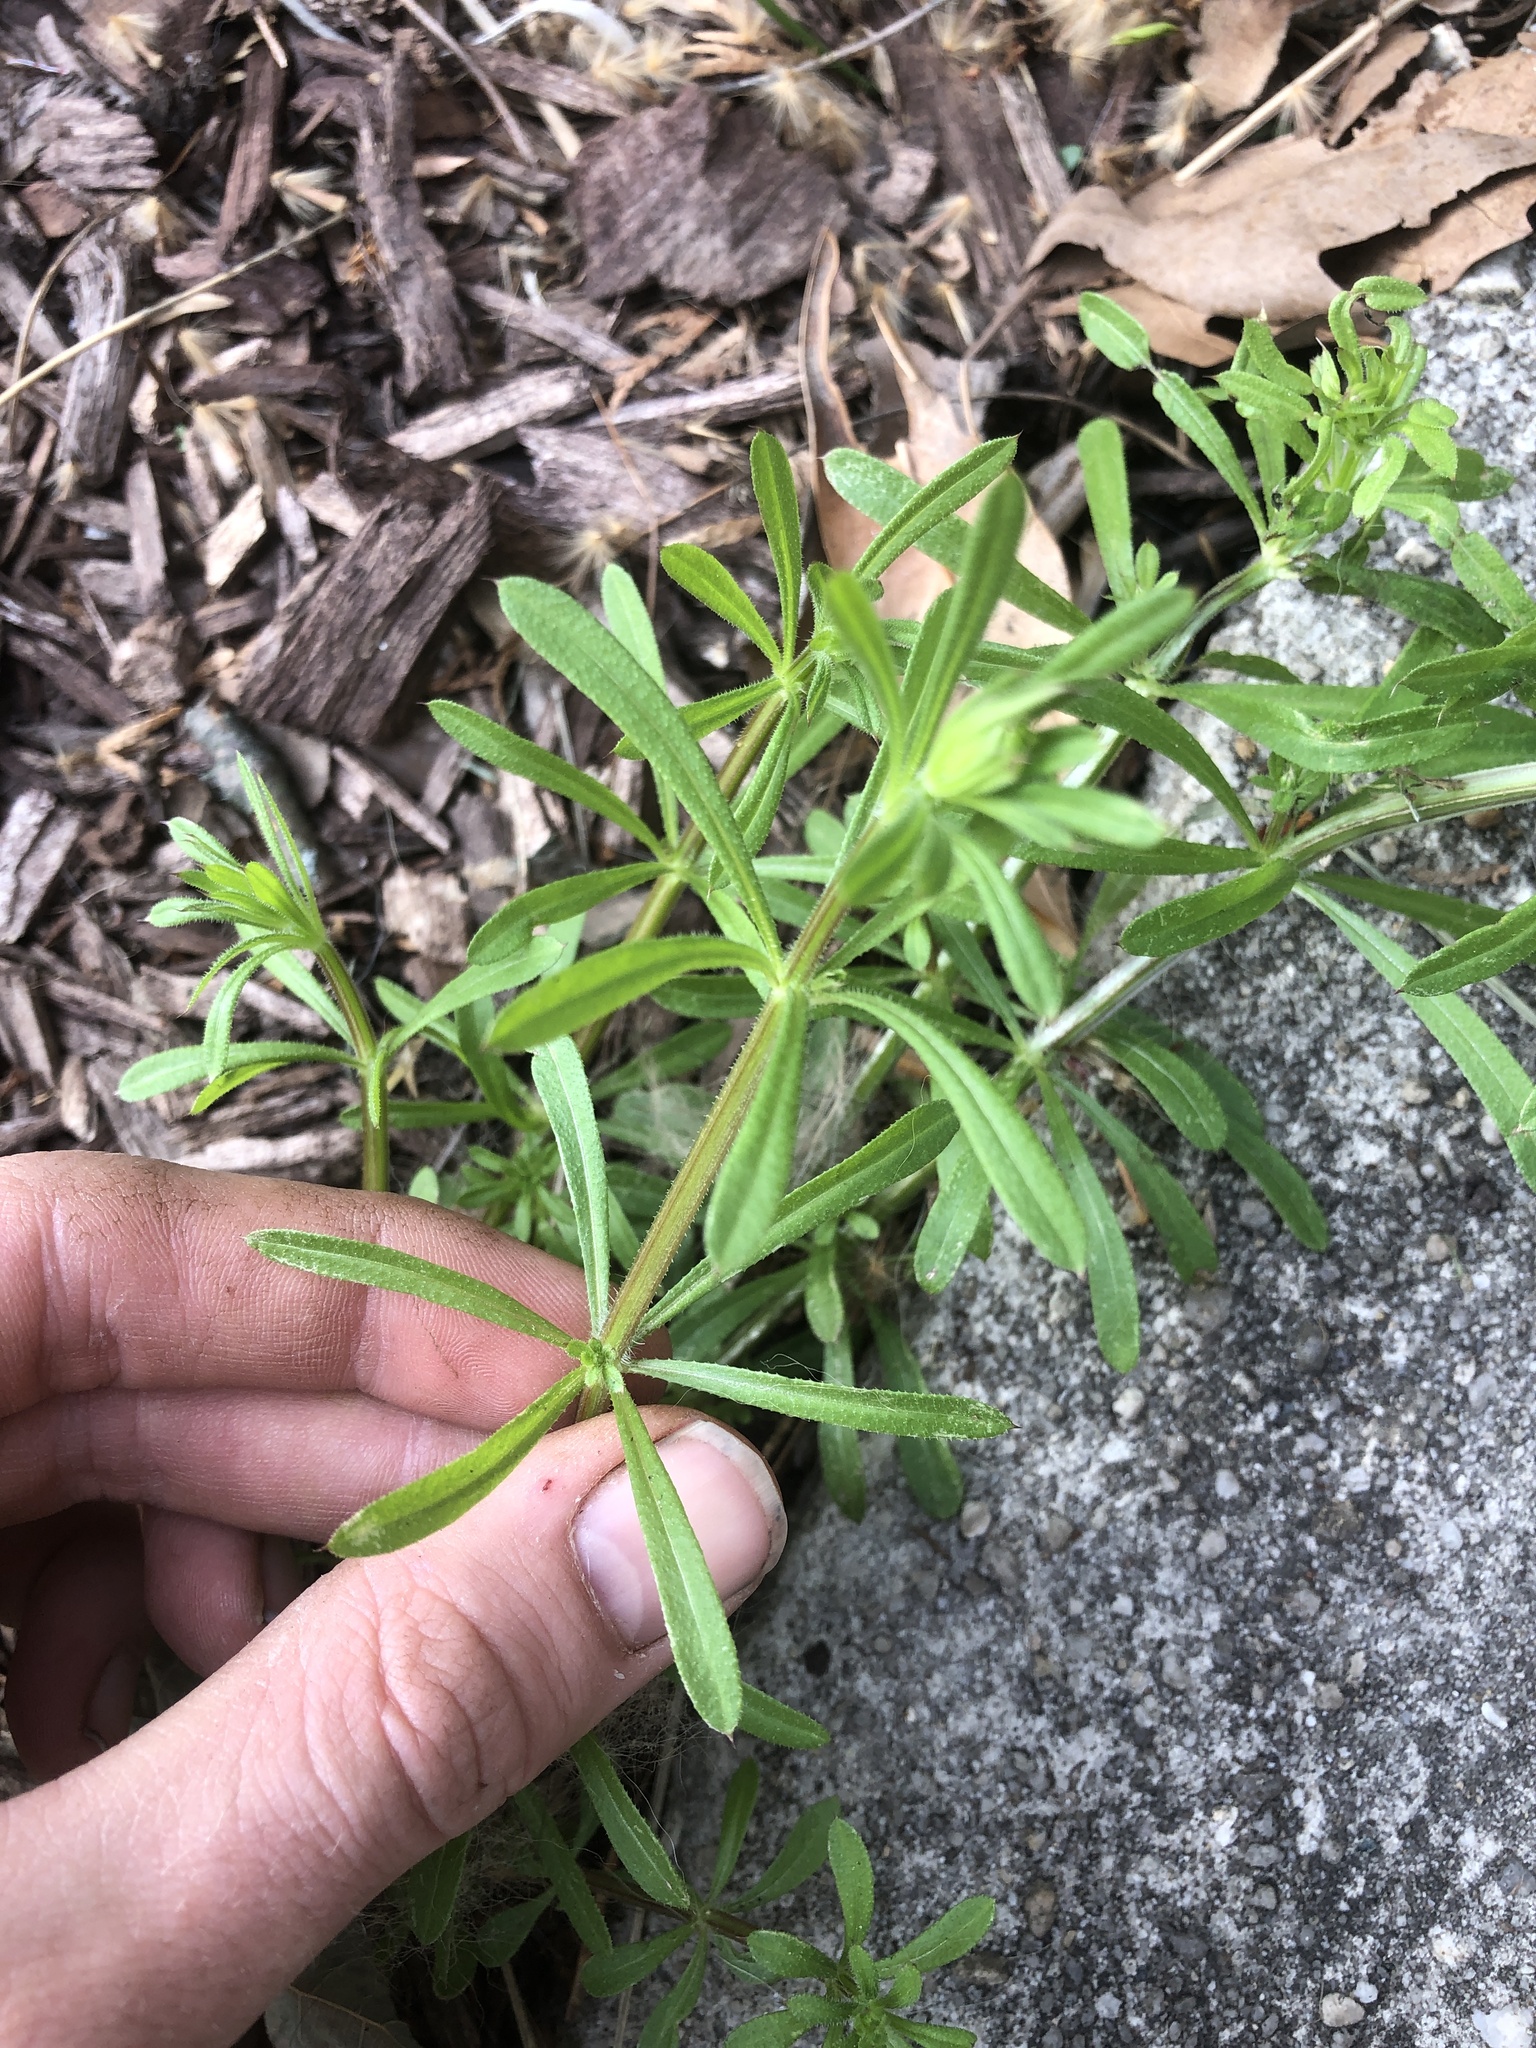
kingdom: Plantae
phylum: Tracheophyta
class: Magnoliopsida
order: Gentianales
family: Rubiaceae
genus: Galium
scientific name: Galium aparine
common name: Cleavers
